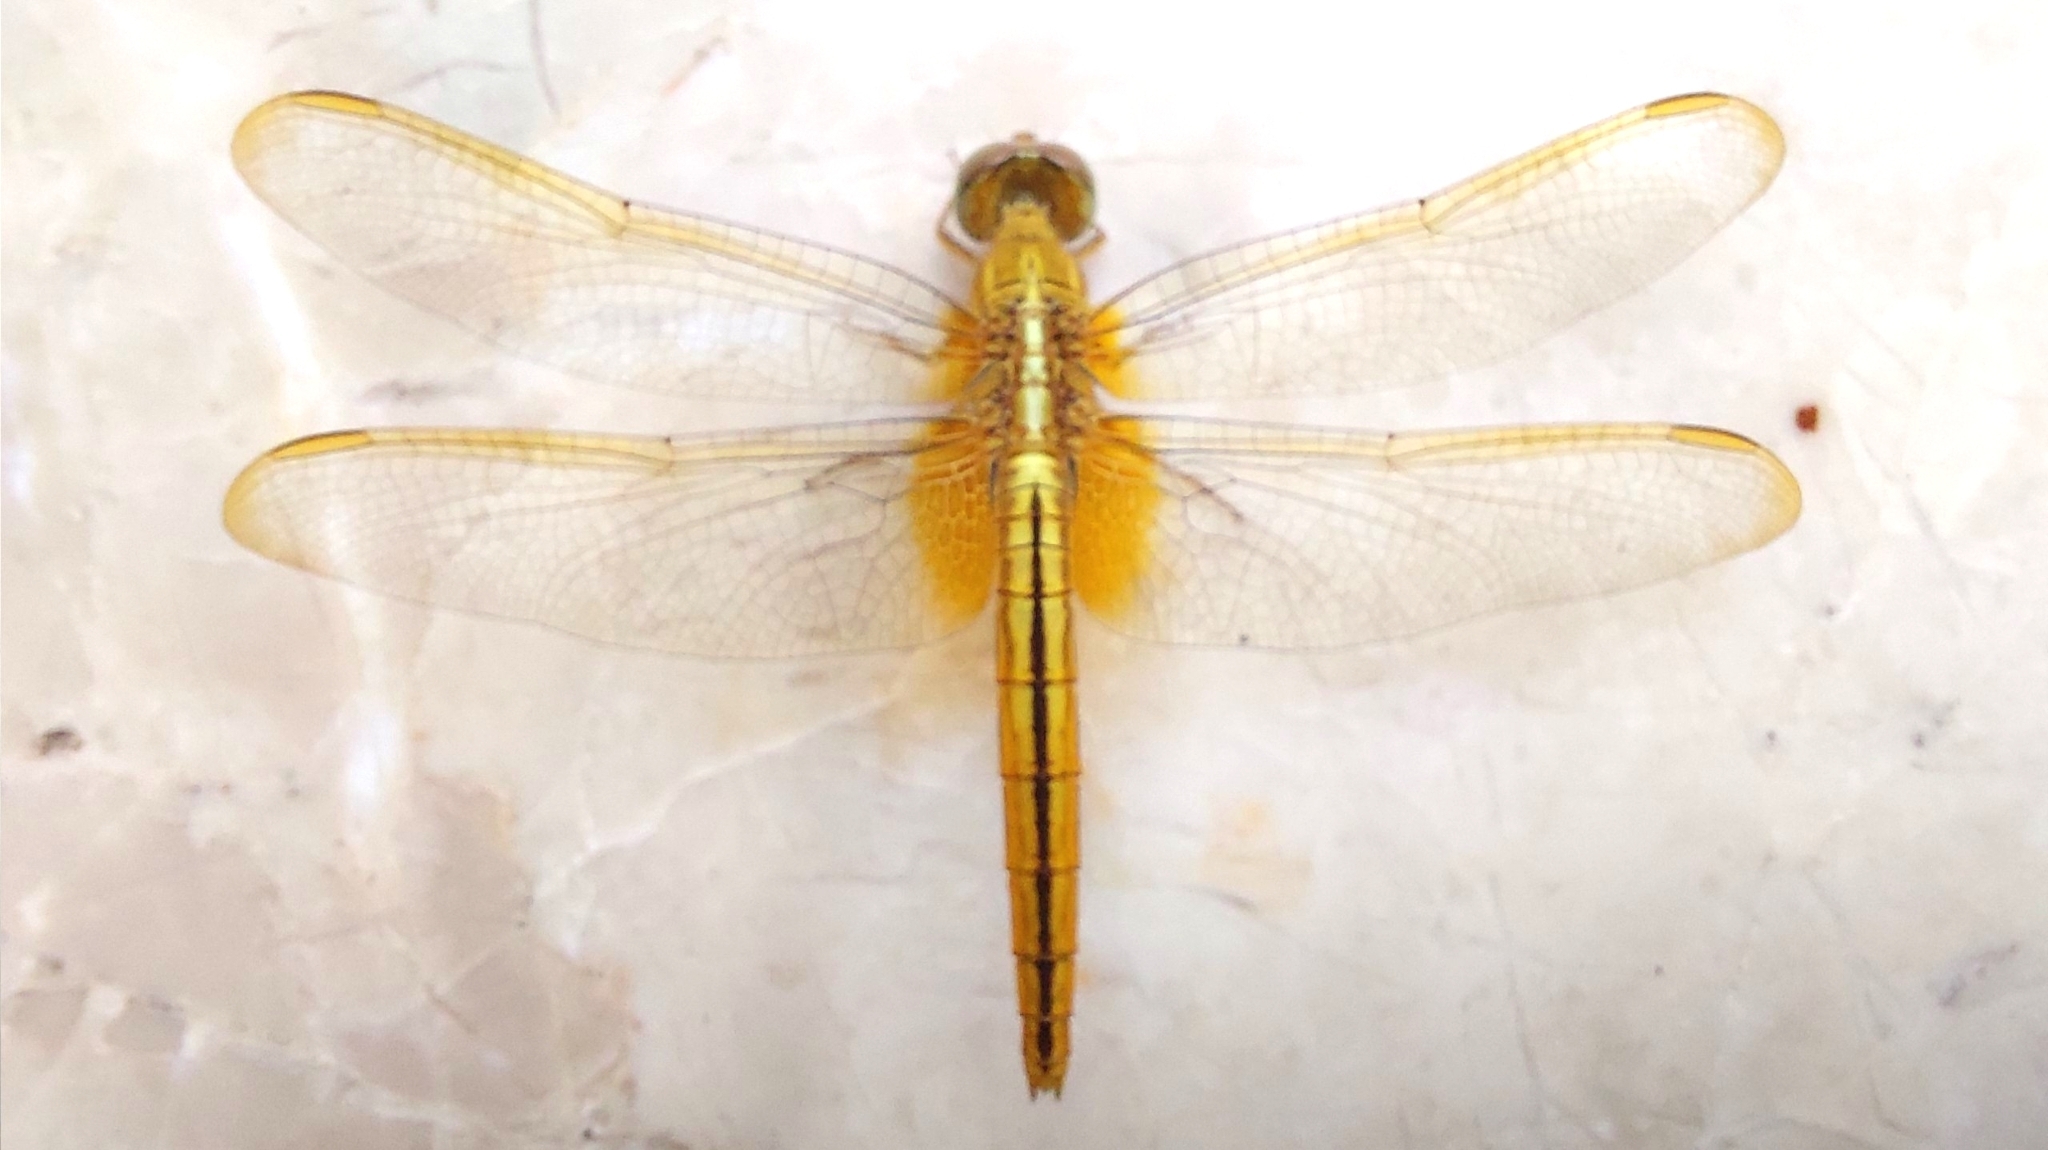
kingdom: Animalia
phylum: Arthropoda
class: Insecta
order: Odonata
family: Libellulidae
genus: Crocothemis
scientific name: Crocothemis servilia
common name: Scarlet skimmer
